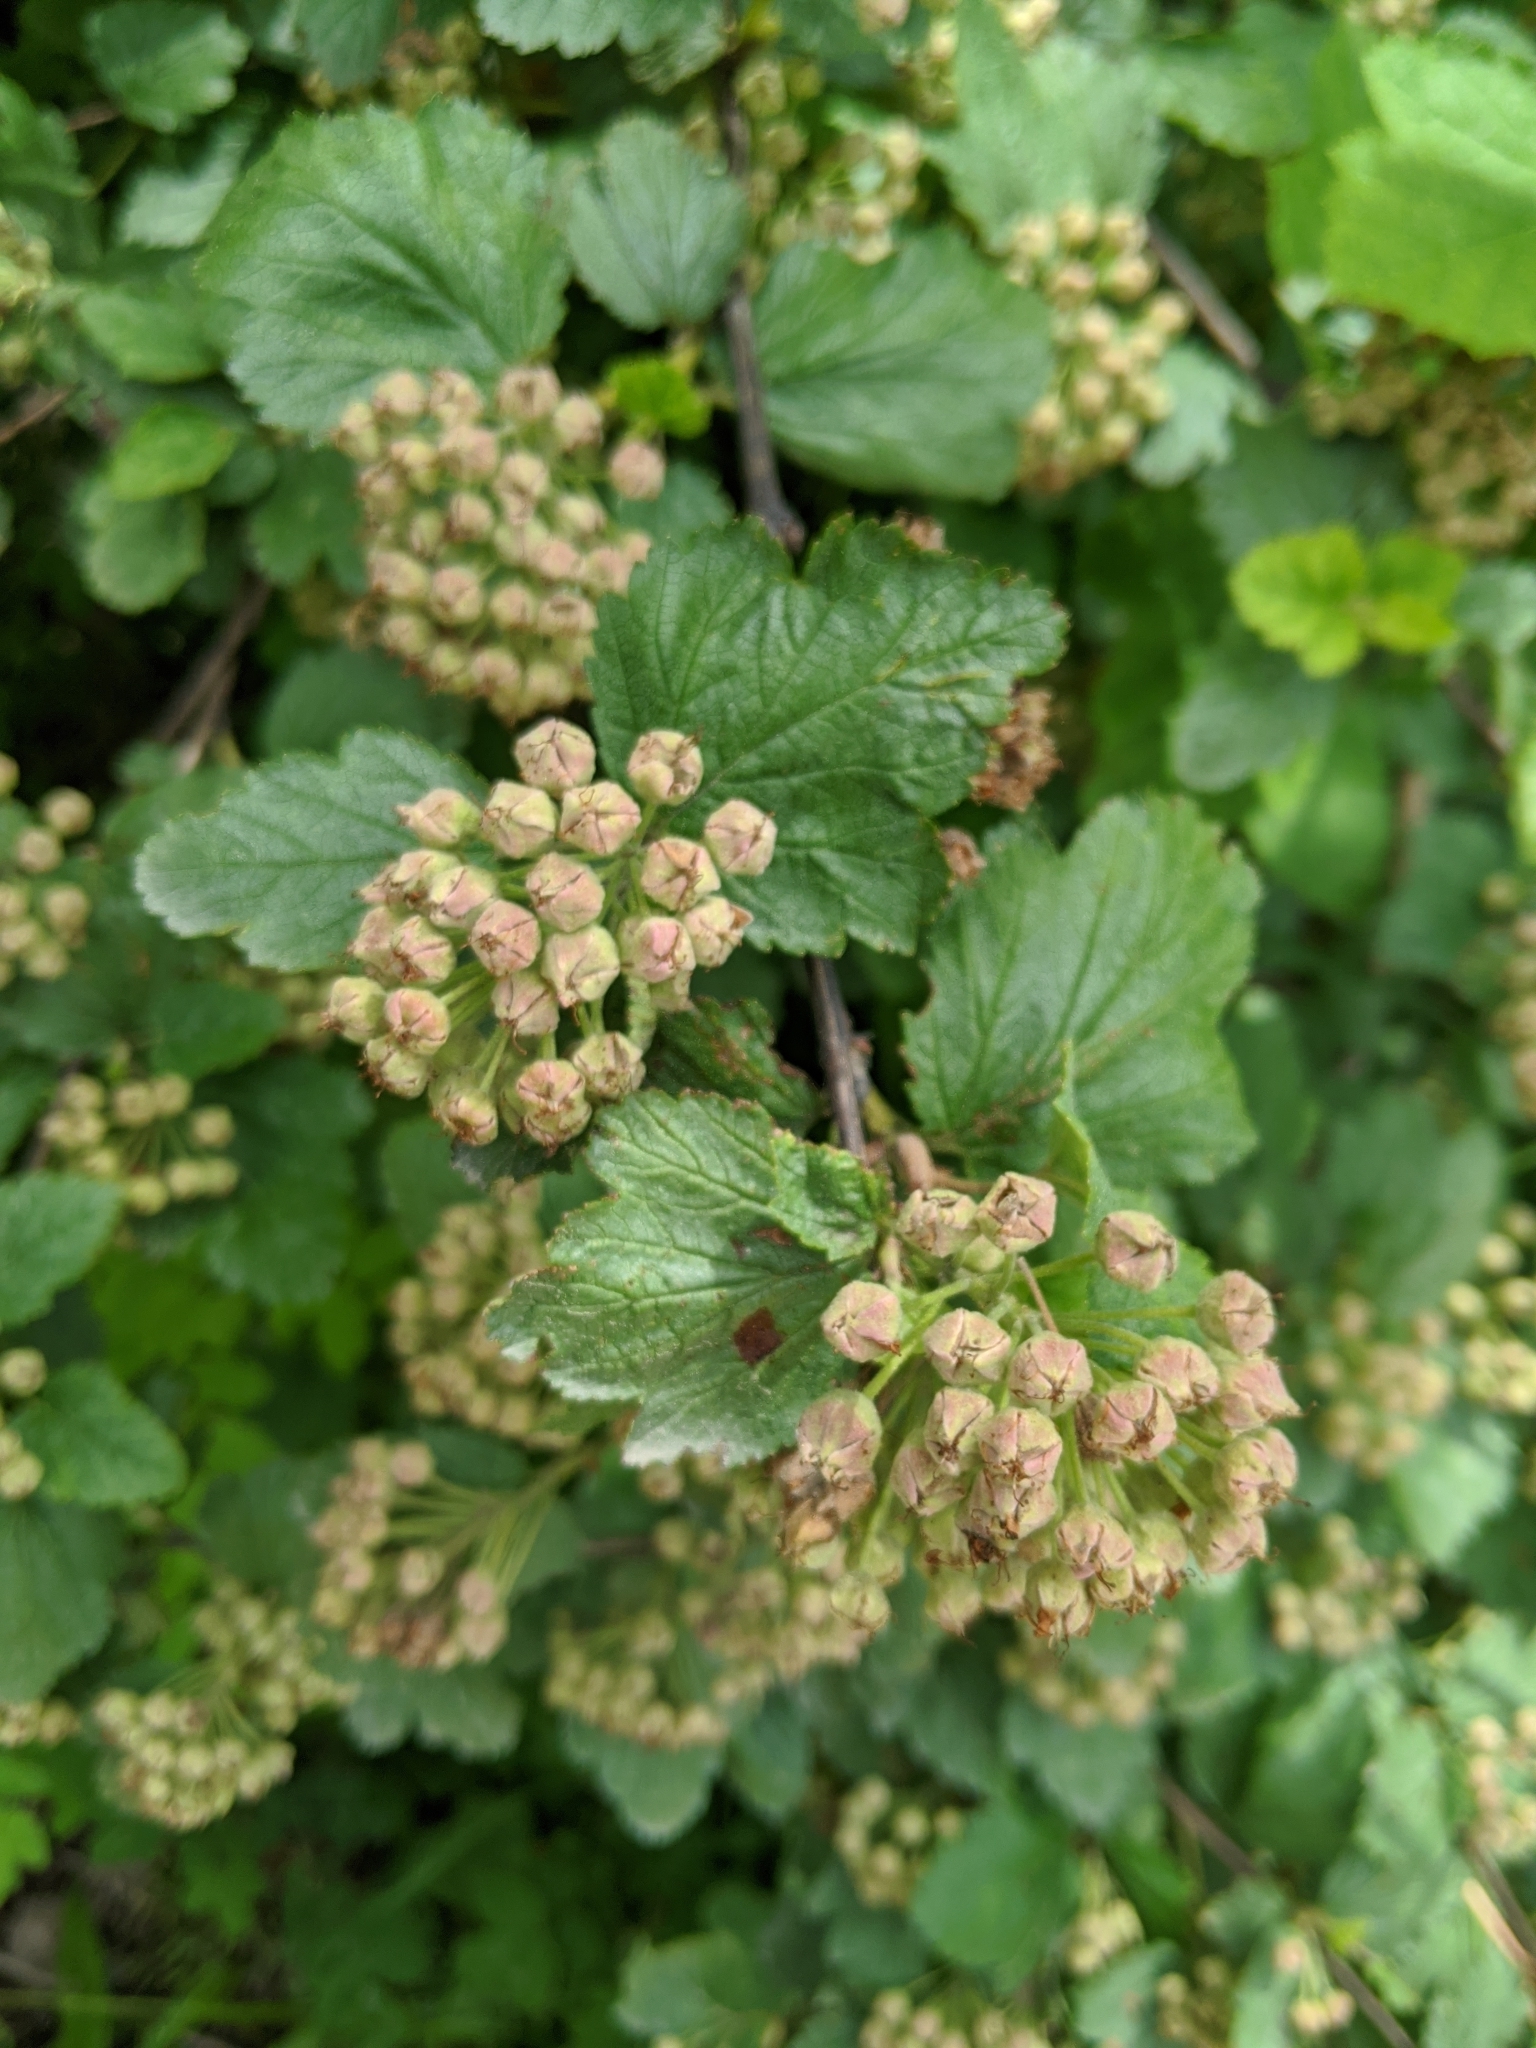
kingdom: Plantae
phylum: Tracheophyta
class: Magnoliopsida
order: Rosales
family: Rosaceae
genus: Physocarpus
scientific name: Physocarpus malvaceus
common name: Mallow ninebark
